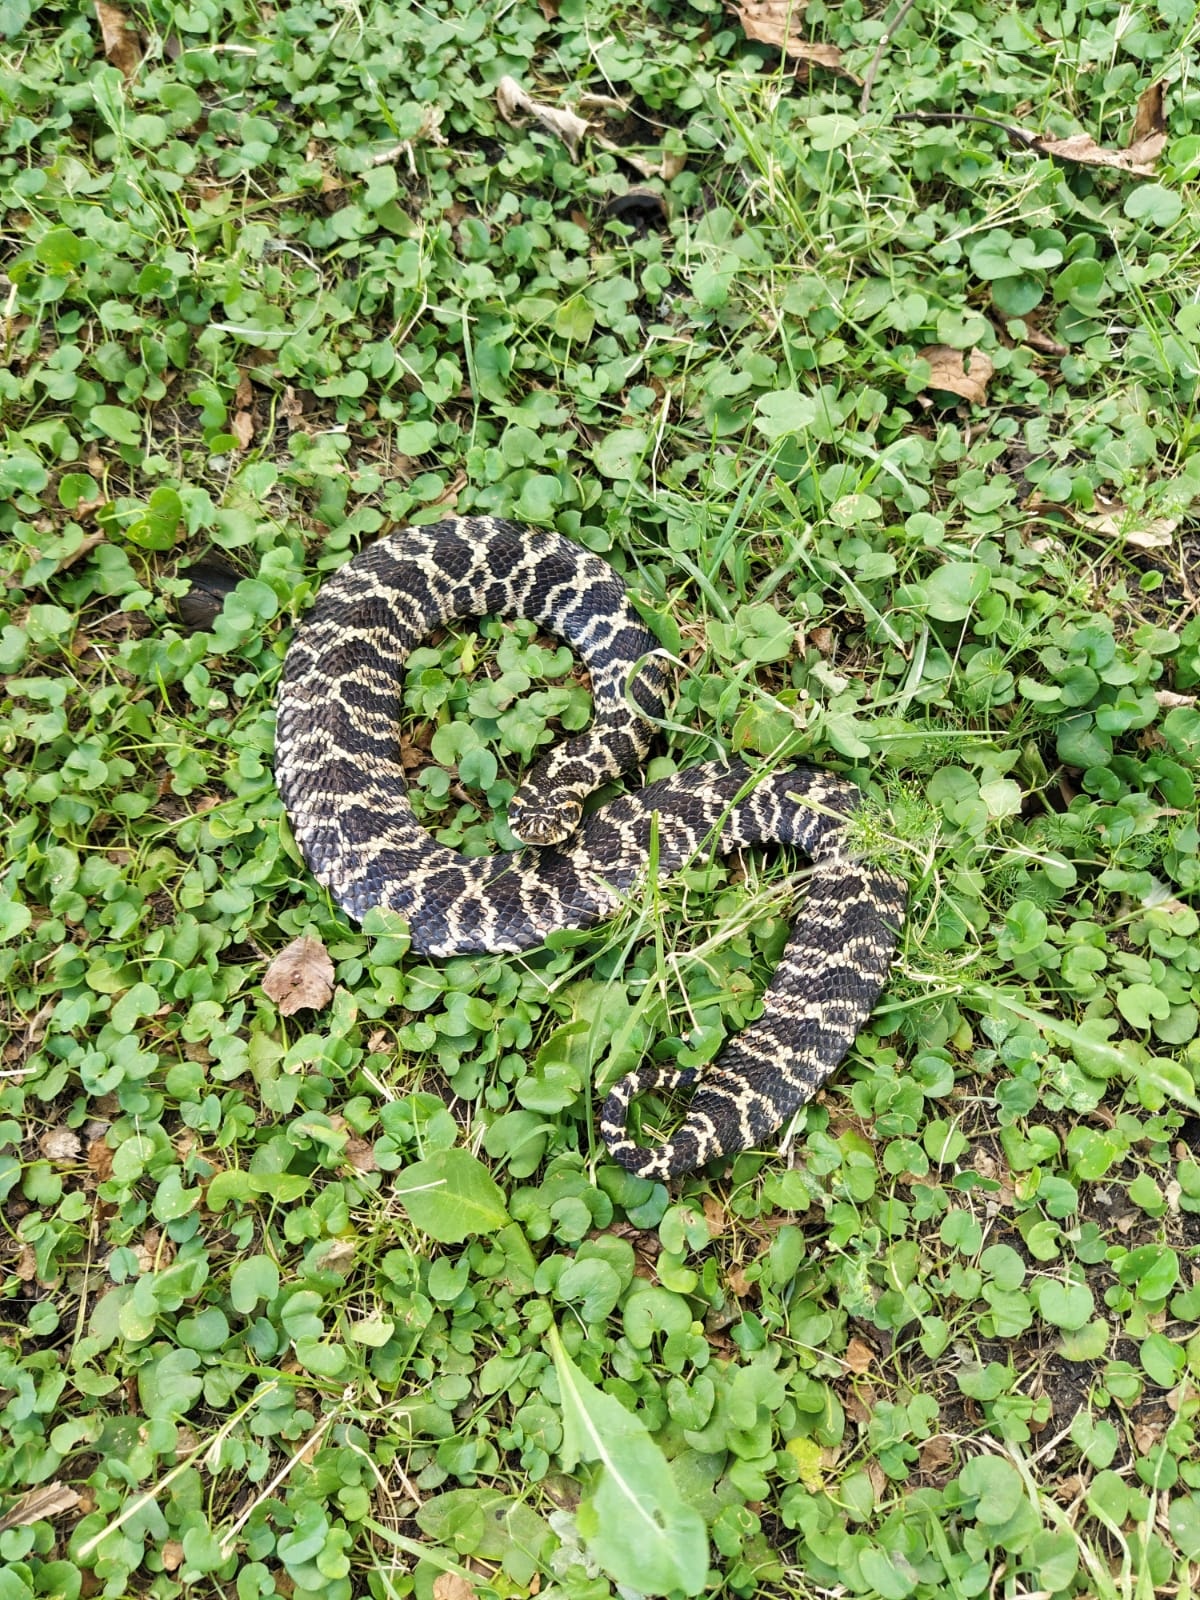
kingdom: Animalia
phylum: Chordata
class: Squamata
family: Colubridae
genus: Xenodon
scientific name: Xenodon dorbignyi
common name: South american hognose snake
